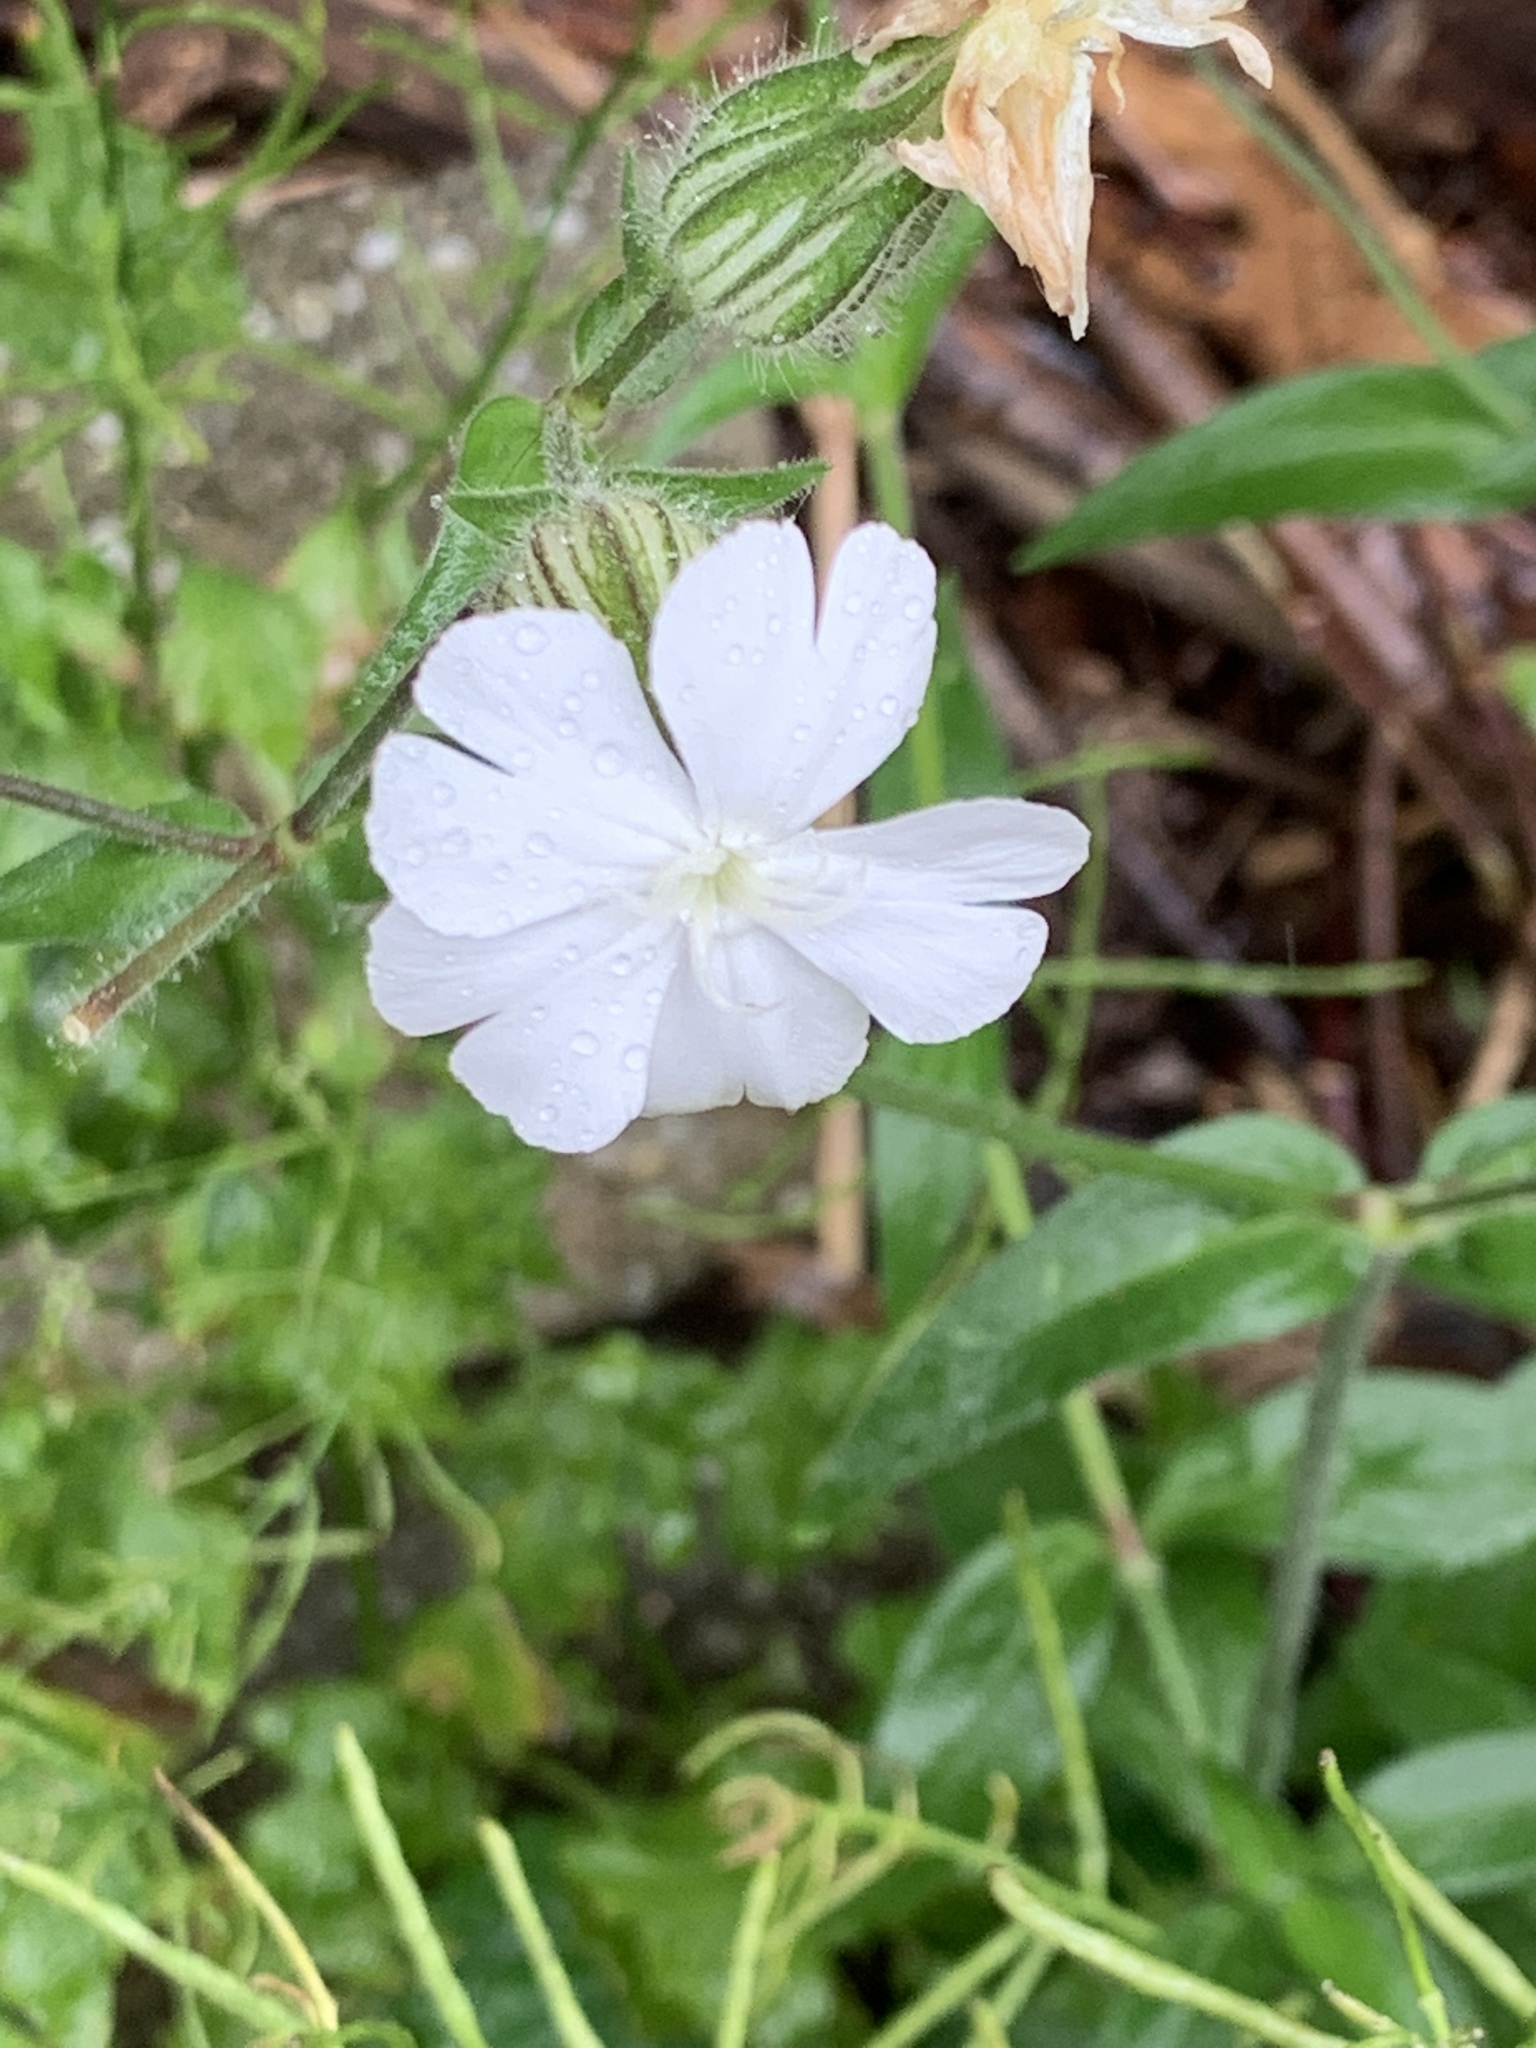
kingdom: Plantae
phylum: Tracheophyta
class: Magnoliopsida
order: Caryophyllales
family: Caryophyllaceae
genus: Silene
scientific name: Silene latifolia
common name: White campion
